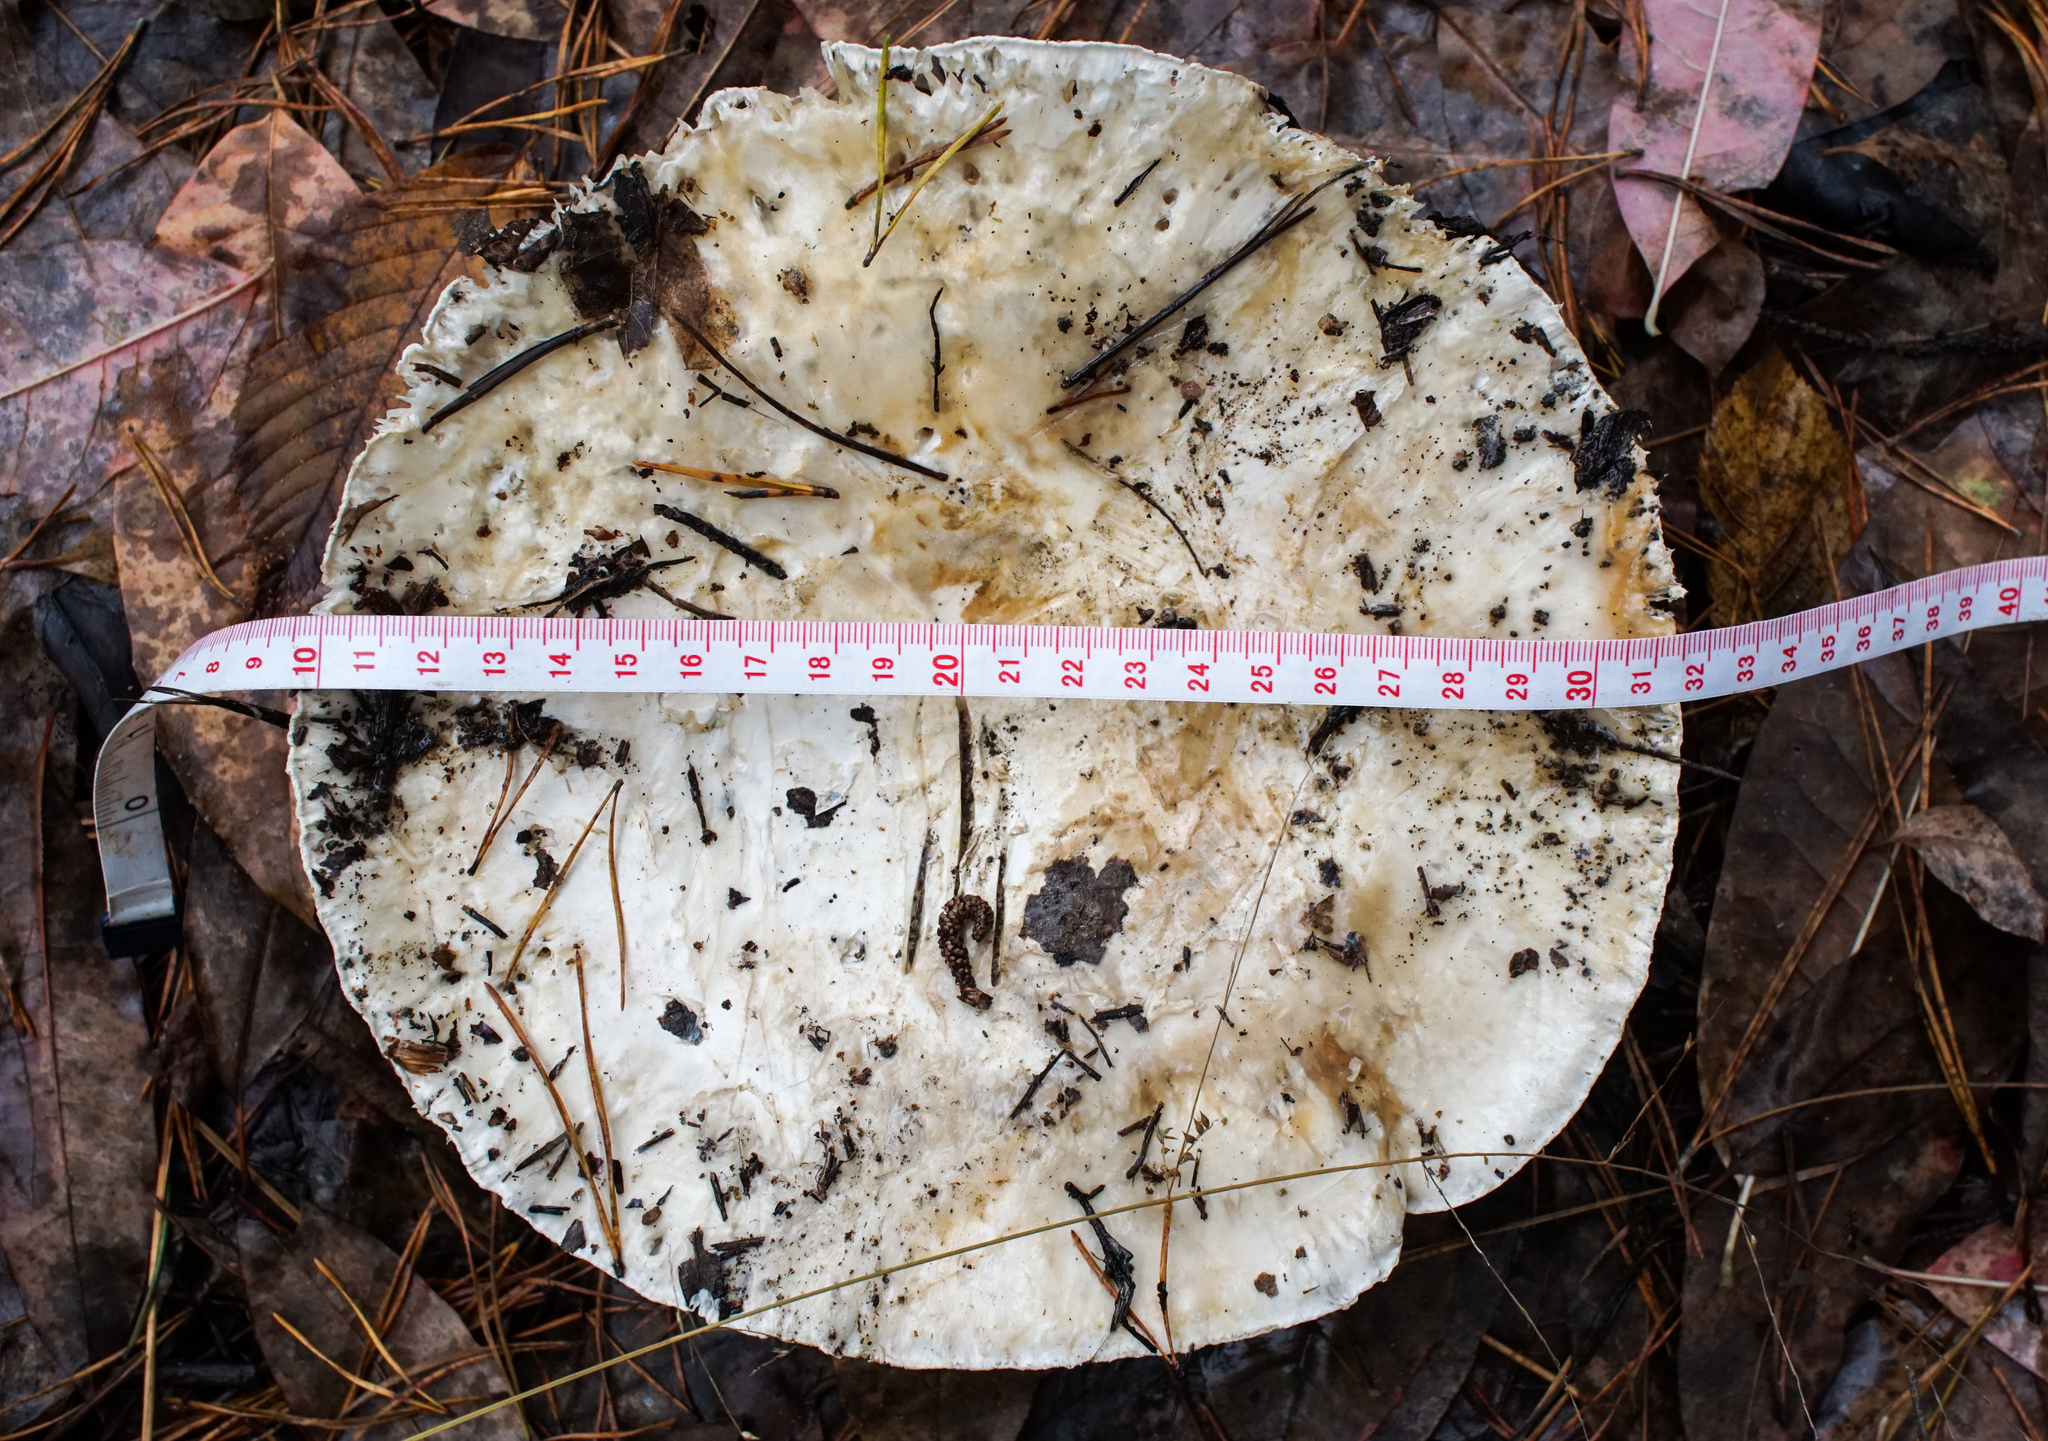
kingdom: Fungi
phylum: Basidiomycota
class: Agaricomycetes
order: Agaricales
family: Biannulariaceae
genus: Catathelasma
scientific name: Catathelasma ventricosum
